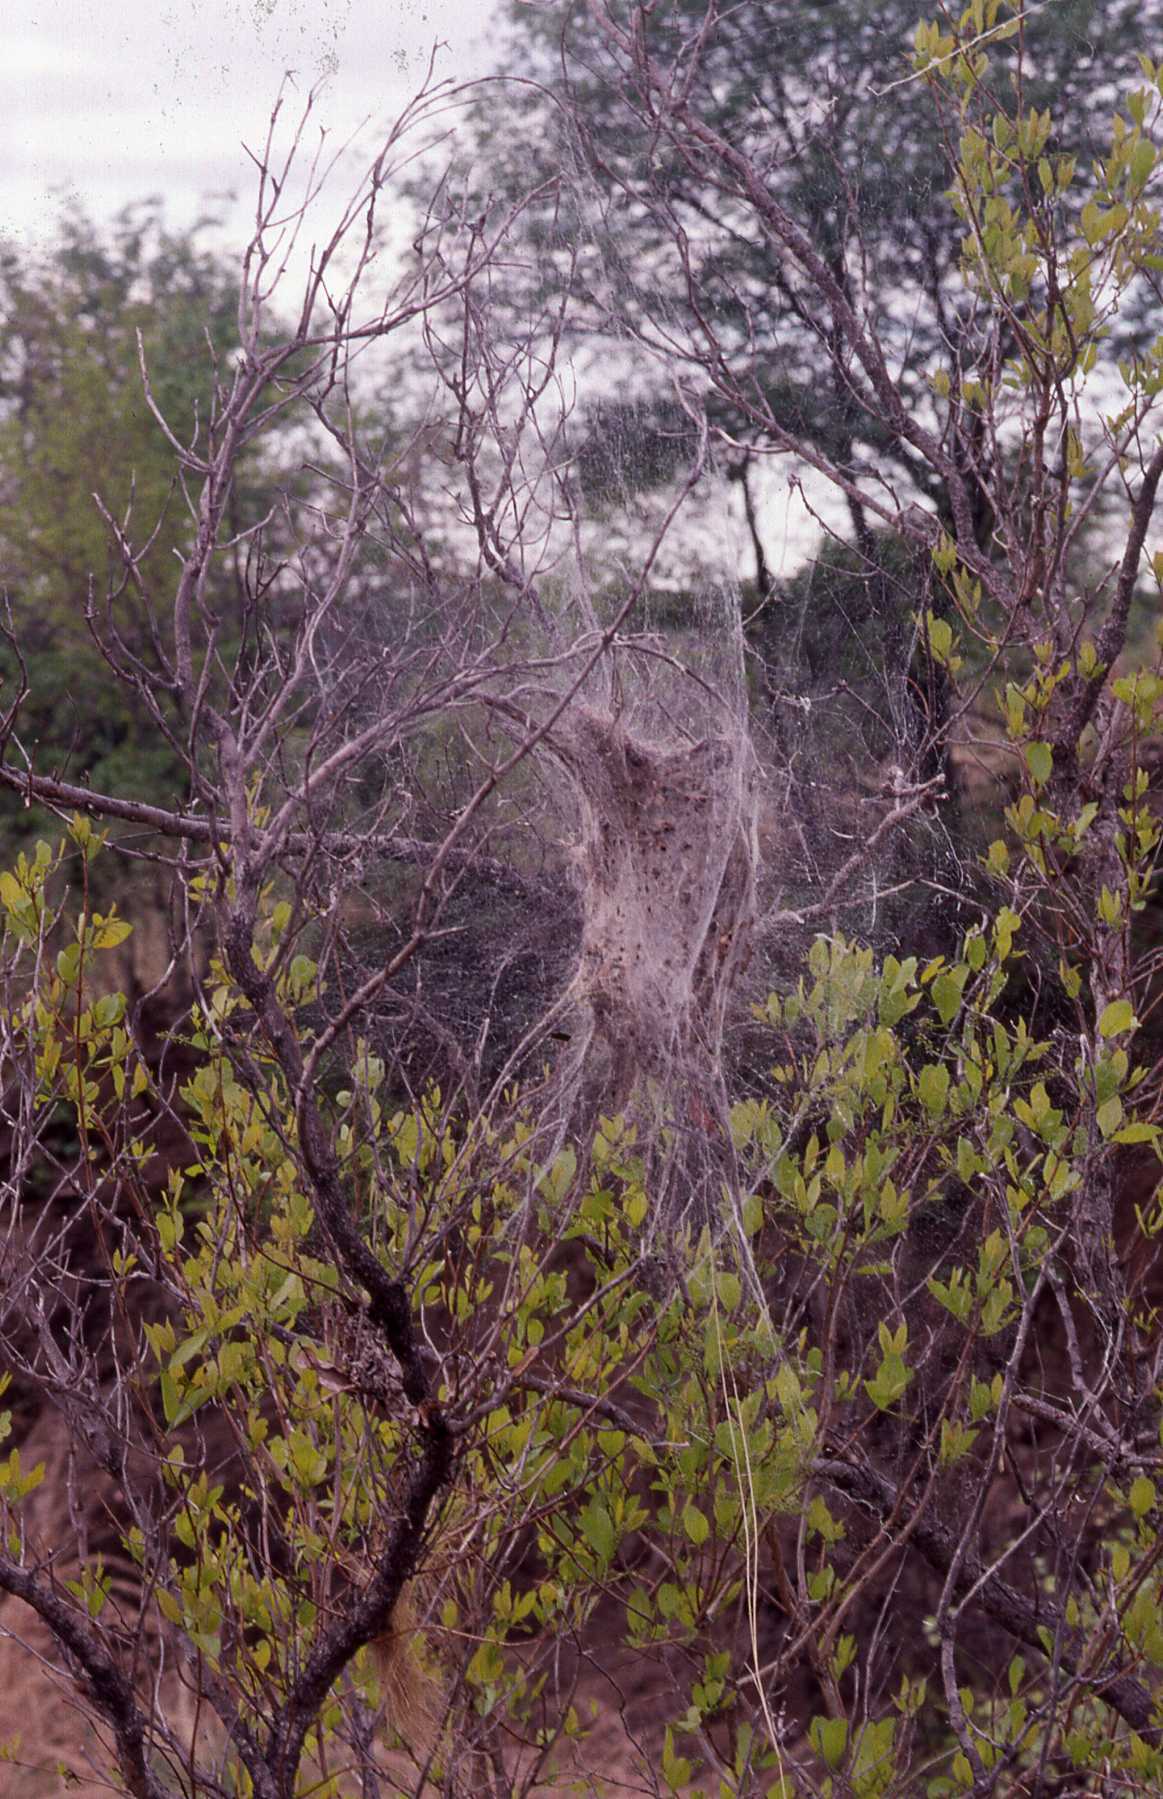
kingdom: Animalia
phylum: Arthropoda
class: Arachnida
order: Araneae
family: Eresidae
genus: Stegodyphus
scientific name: Stegodyphus dumicola
